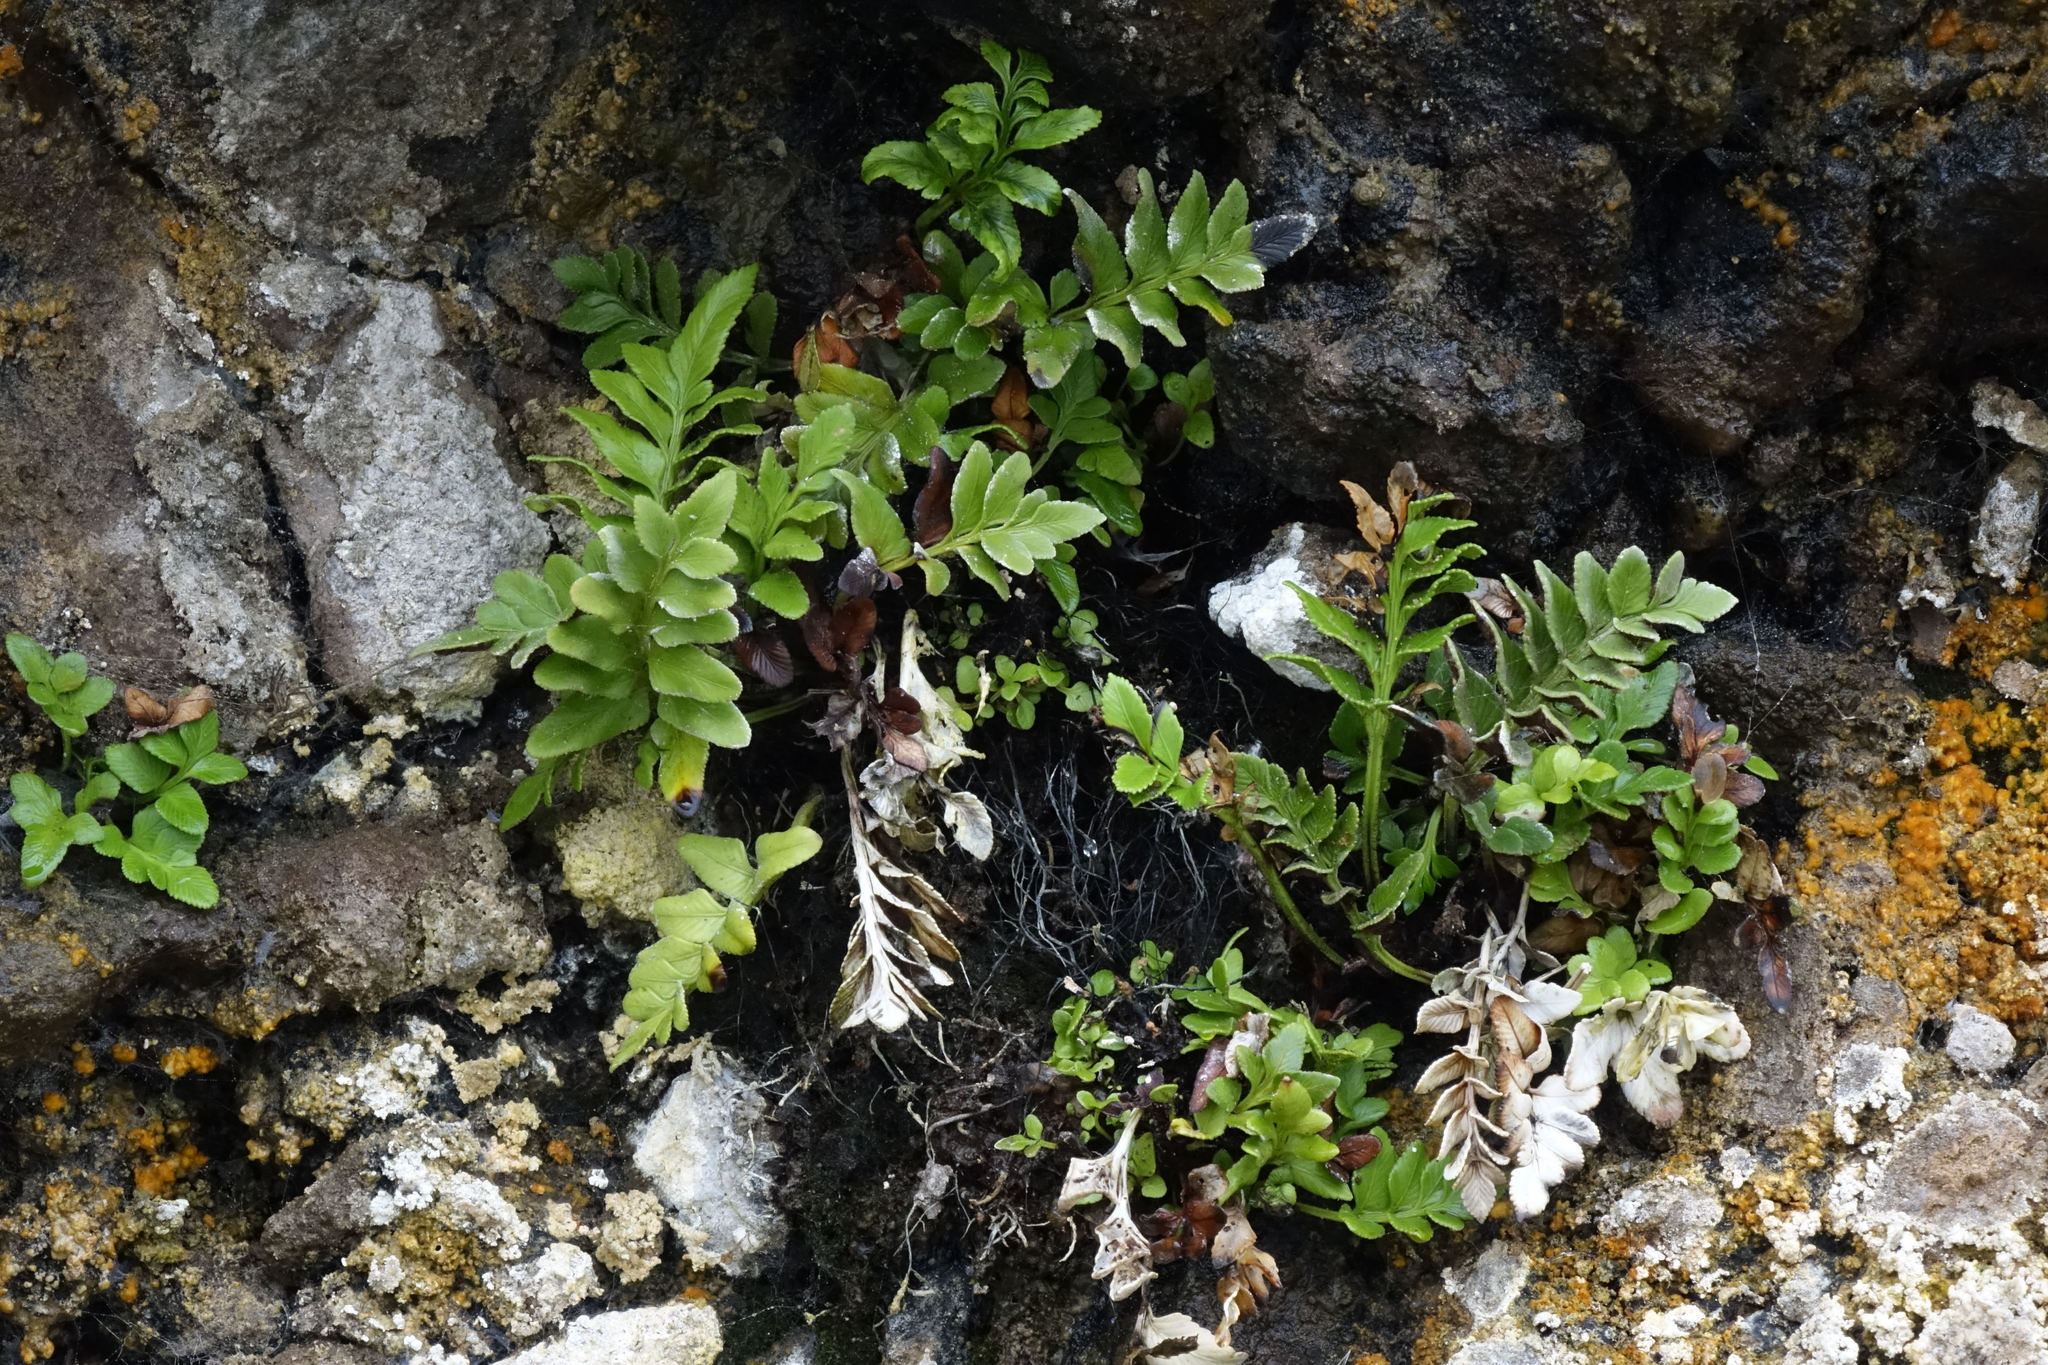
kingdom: Plantae
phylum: Tracheophyta
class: Polypodiopsida
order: Polypodiales
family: Aspleniaceae
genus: Asplenium
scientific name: Asplenium obtusatum
